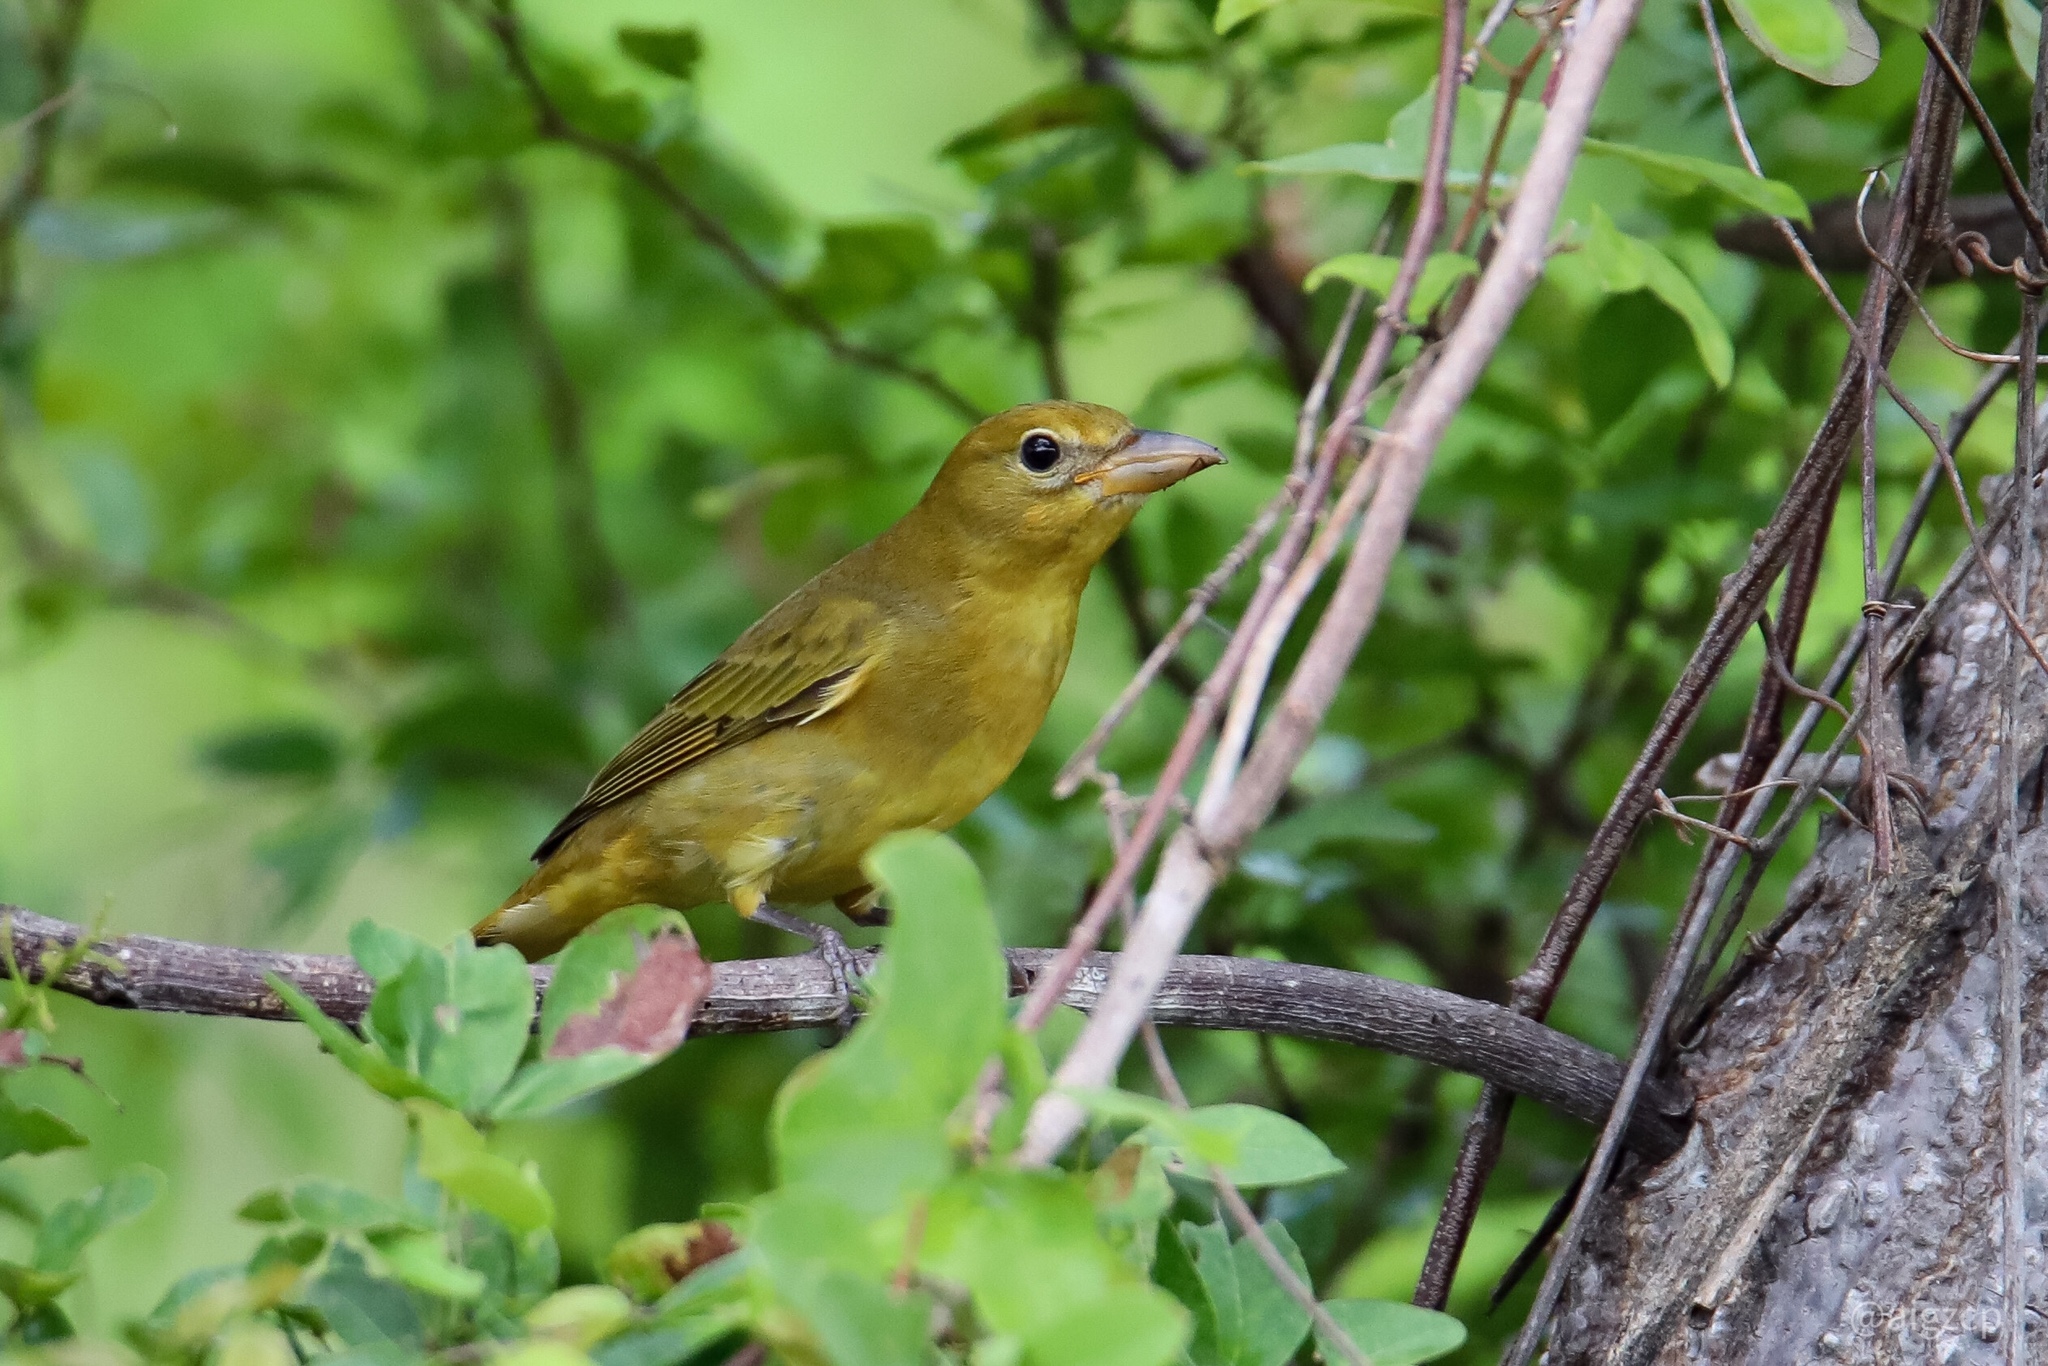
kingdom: Animalia
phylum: Chordata
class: Aves
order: Passeriformes
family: Cardinalidae
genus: Piranga
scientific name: Piranga rubra
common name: Summer tanager
